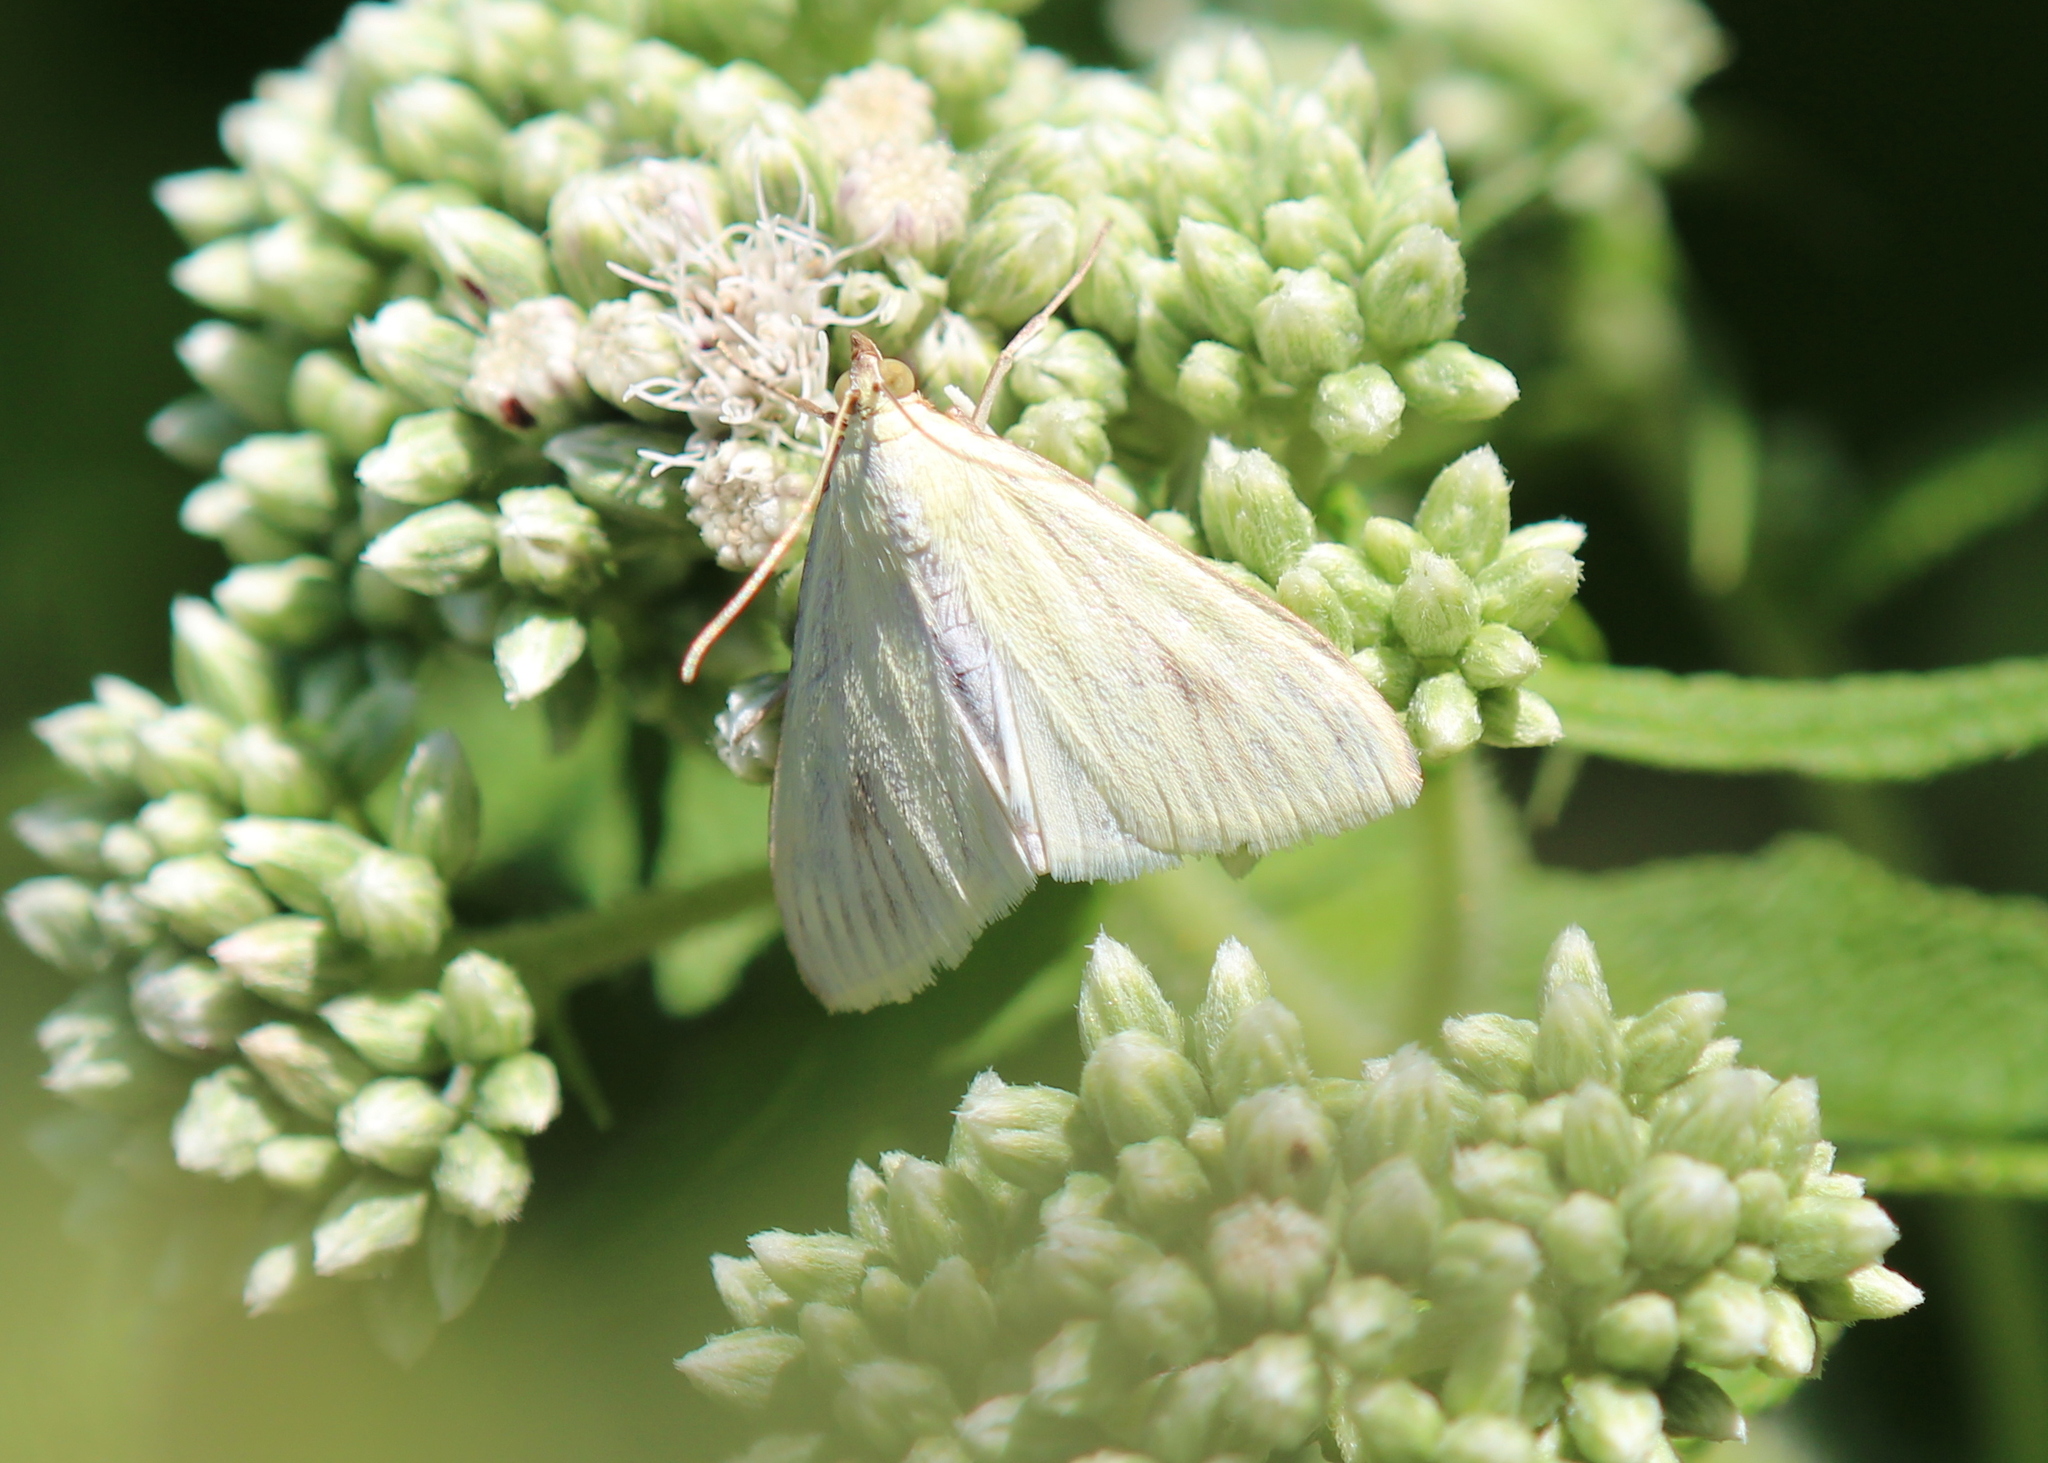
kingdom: Animalia
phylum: Arthropoda
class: Insecta
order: Lepidoptera
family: Crambidae
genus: Sitochroa
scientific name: Sitochroa palealis
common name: Greenish-yellow sitochroa moth
